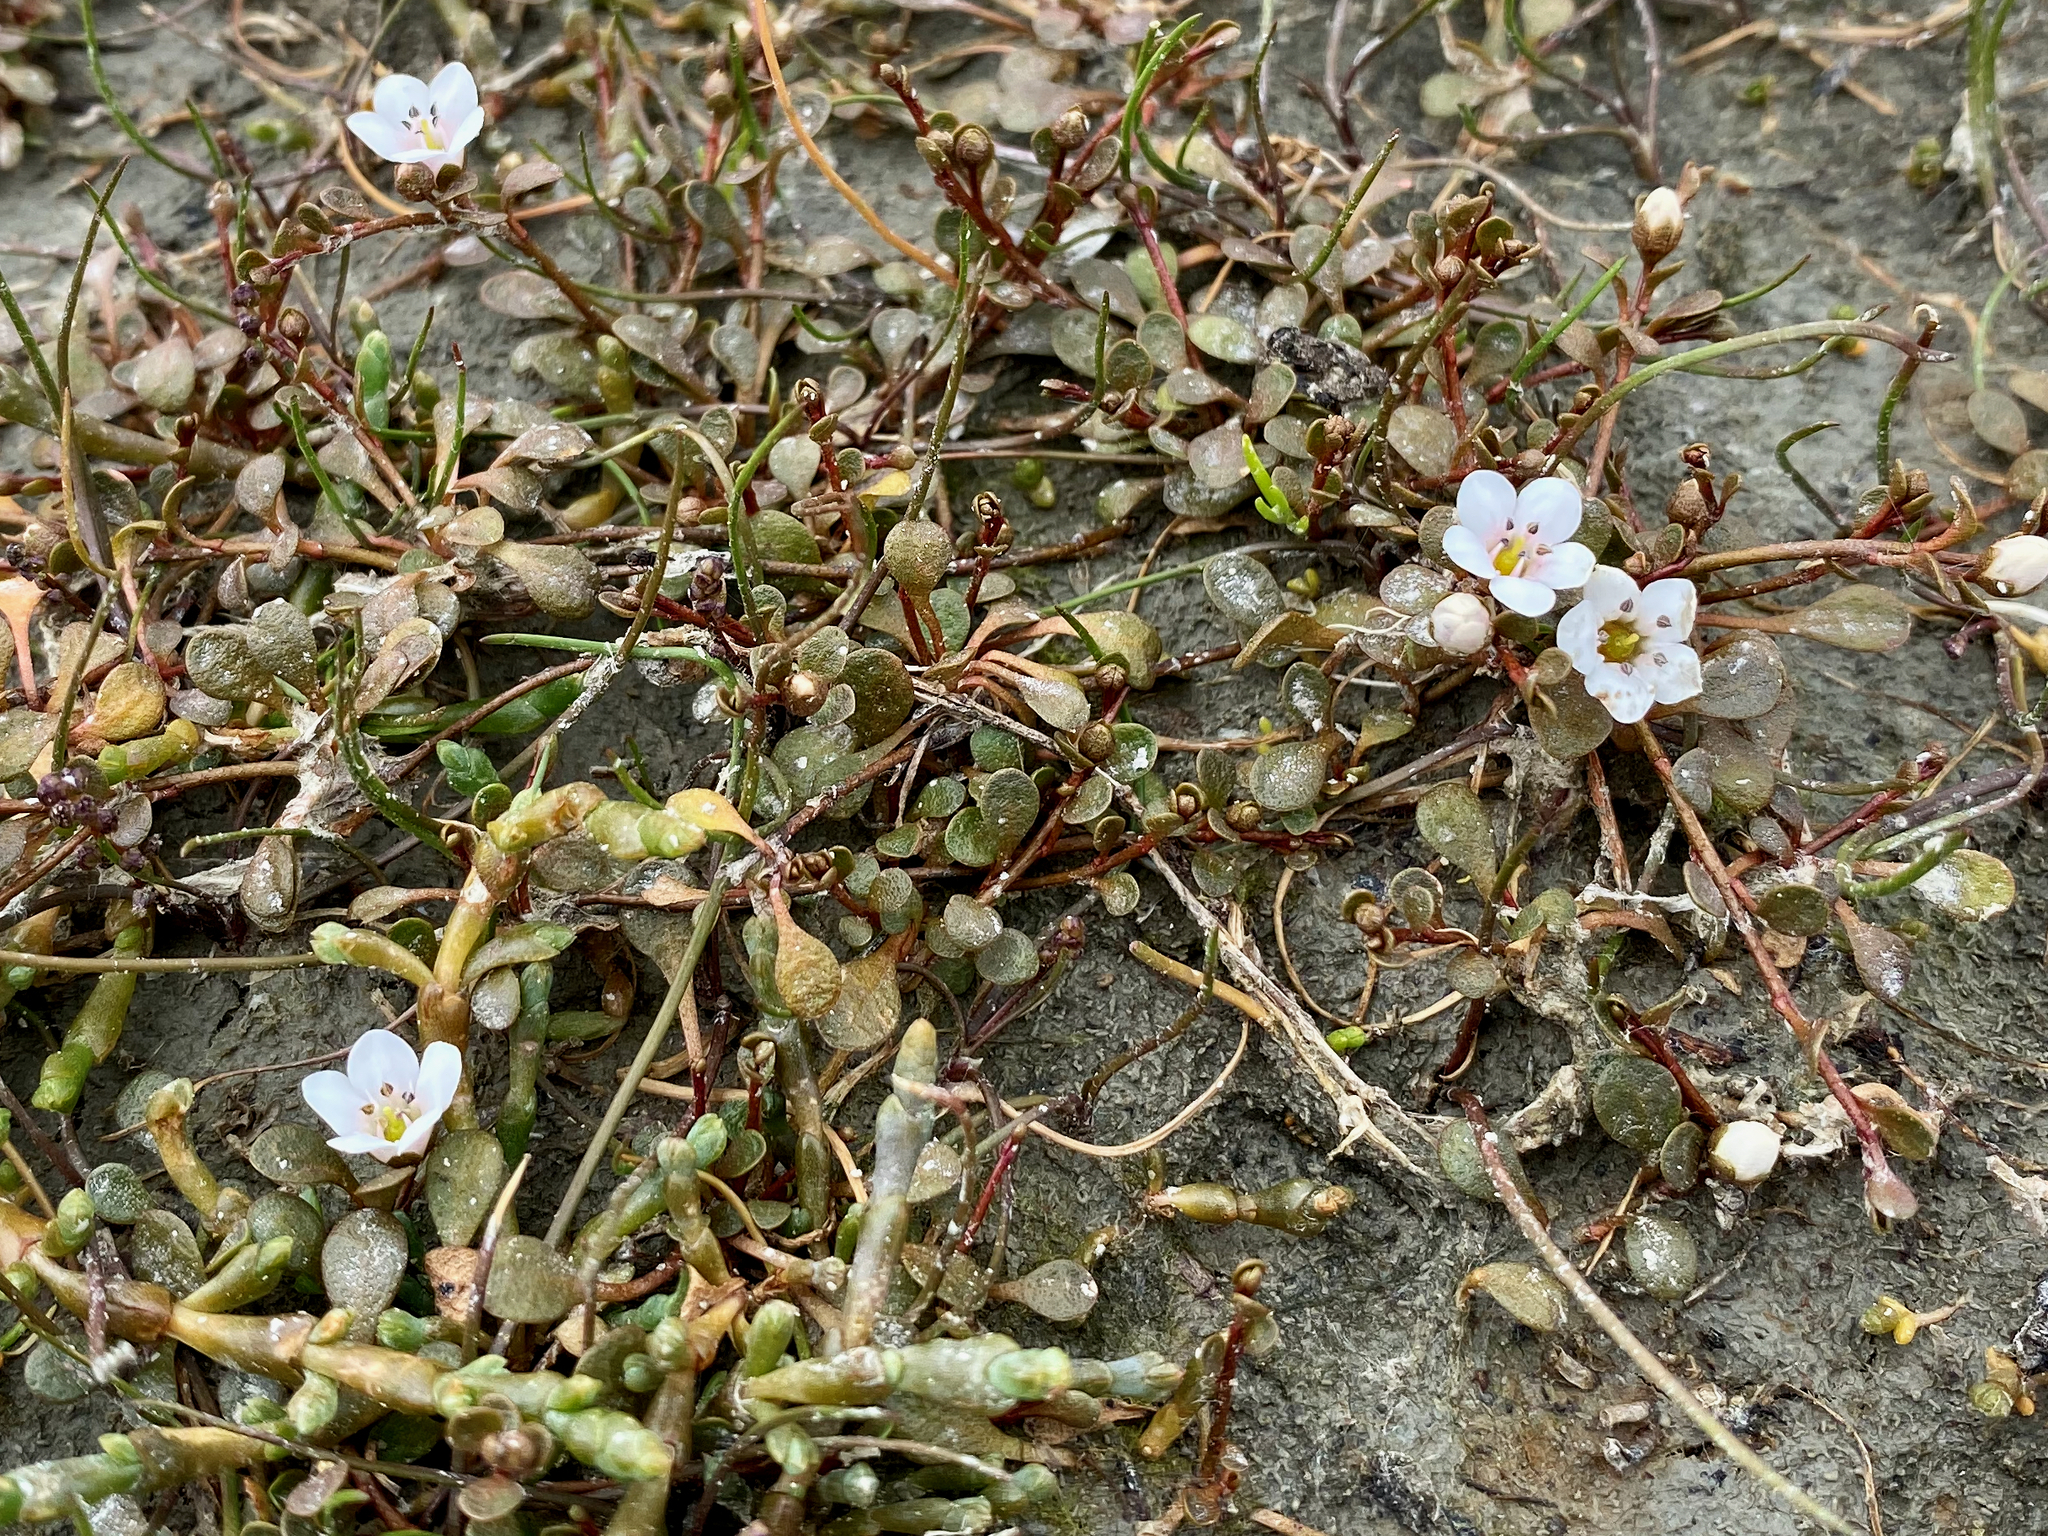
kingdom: Plantae
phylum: Tracheophyta
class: Magnoliopsida
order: Ericales
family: Primulaceae
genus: Samolus
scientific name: Samolus repens
